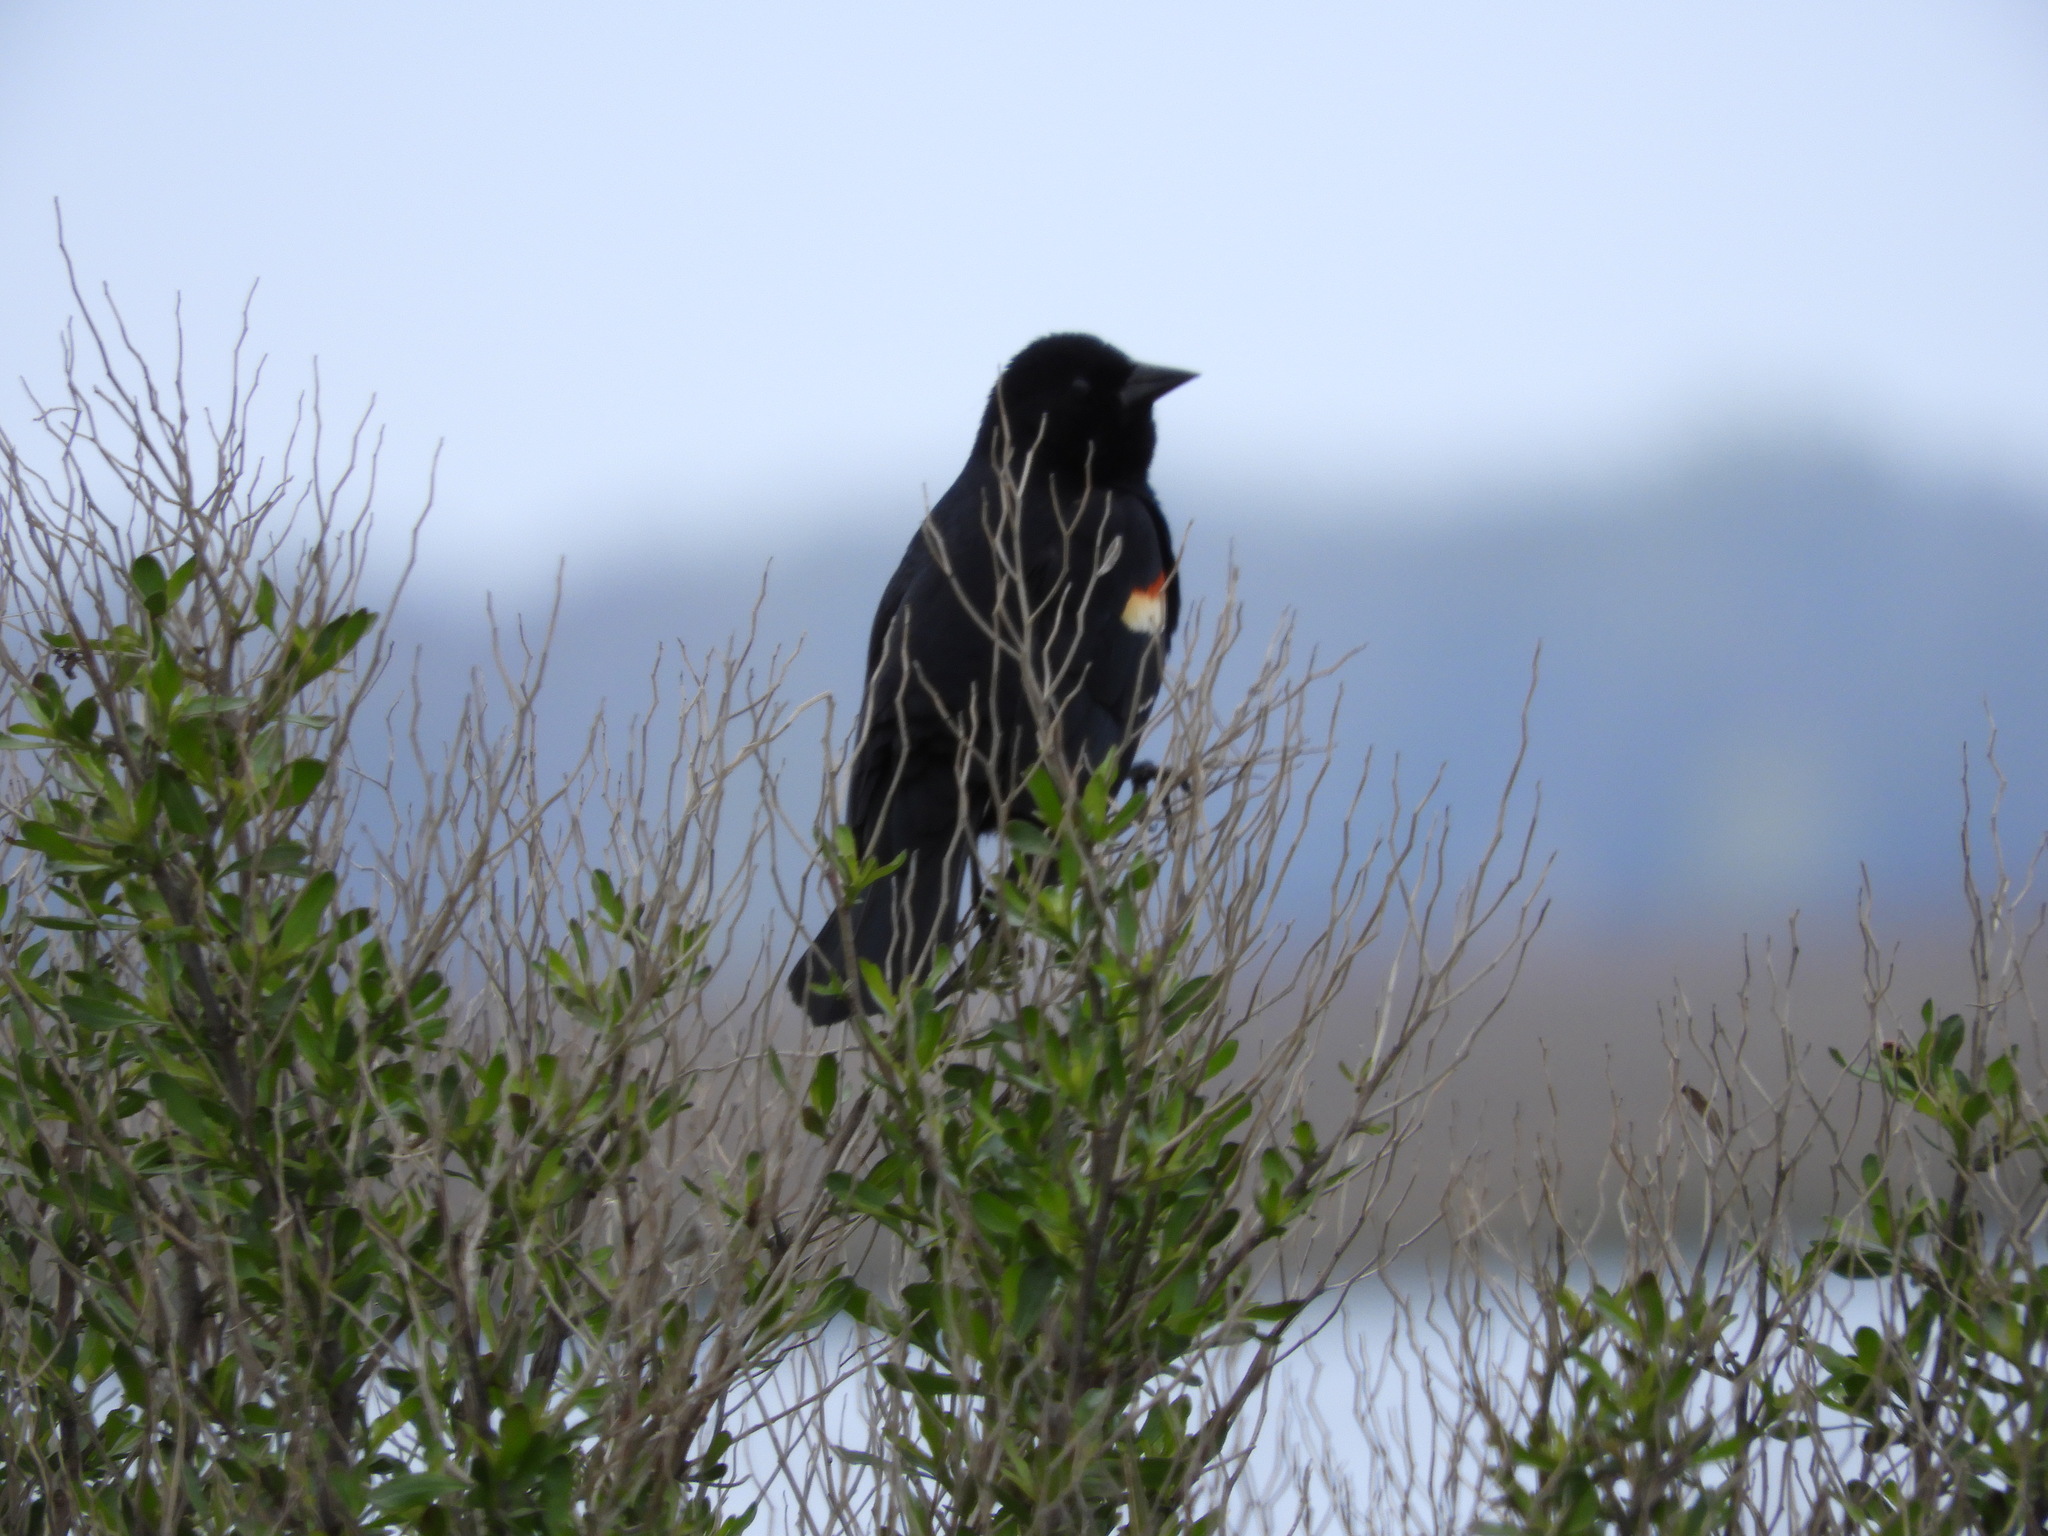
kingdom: Animalia
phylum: Chordata
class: Aves
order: Passeriformes
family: Icteridae
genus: Agelaius
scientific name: Agelaius phoeniceus
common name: Red-winged blackbird
